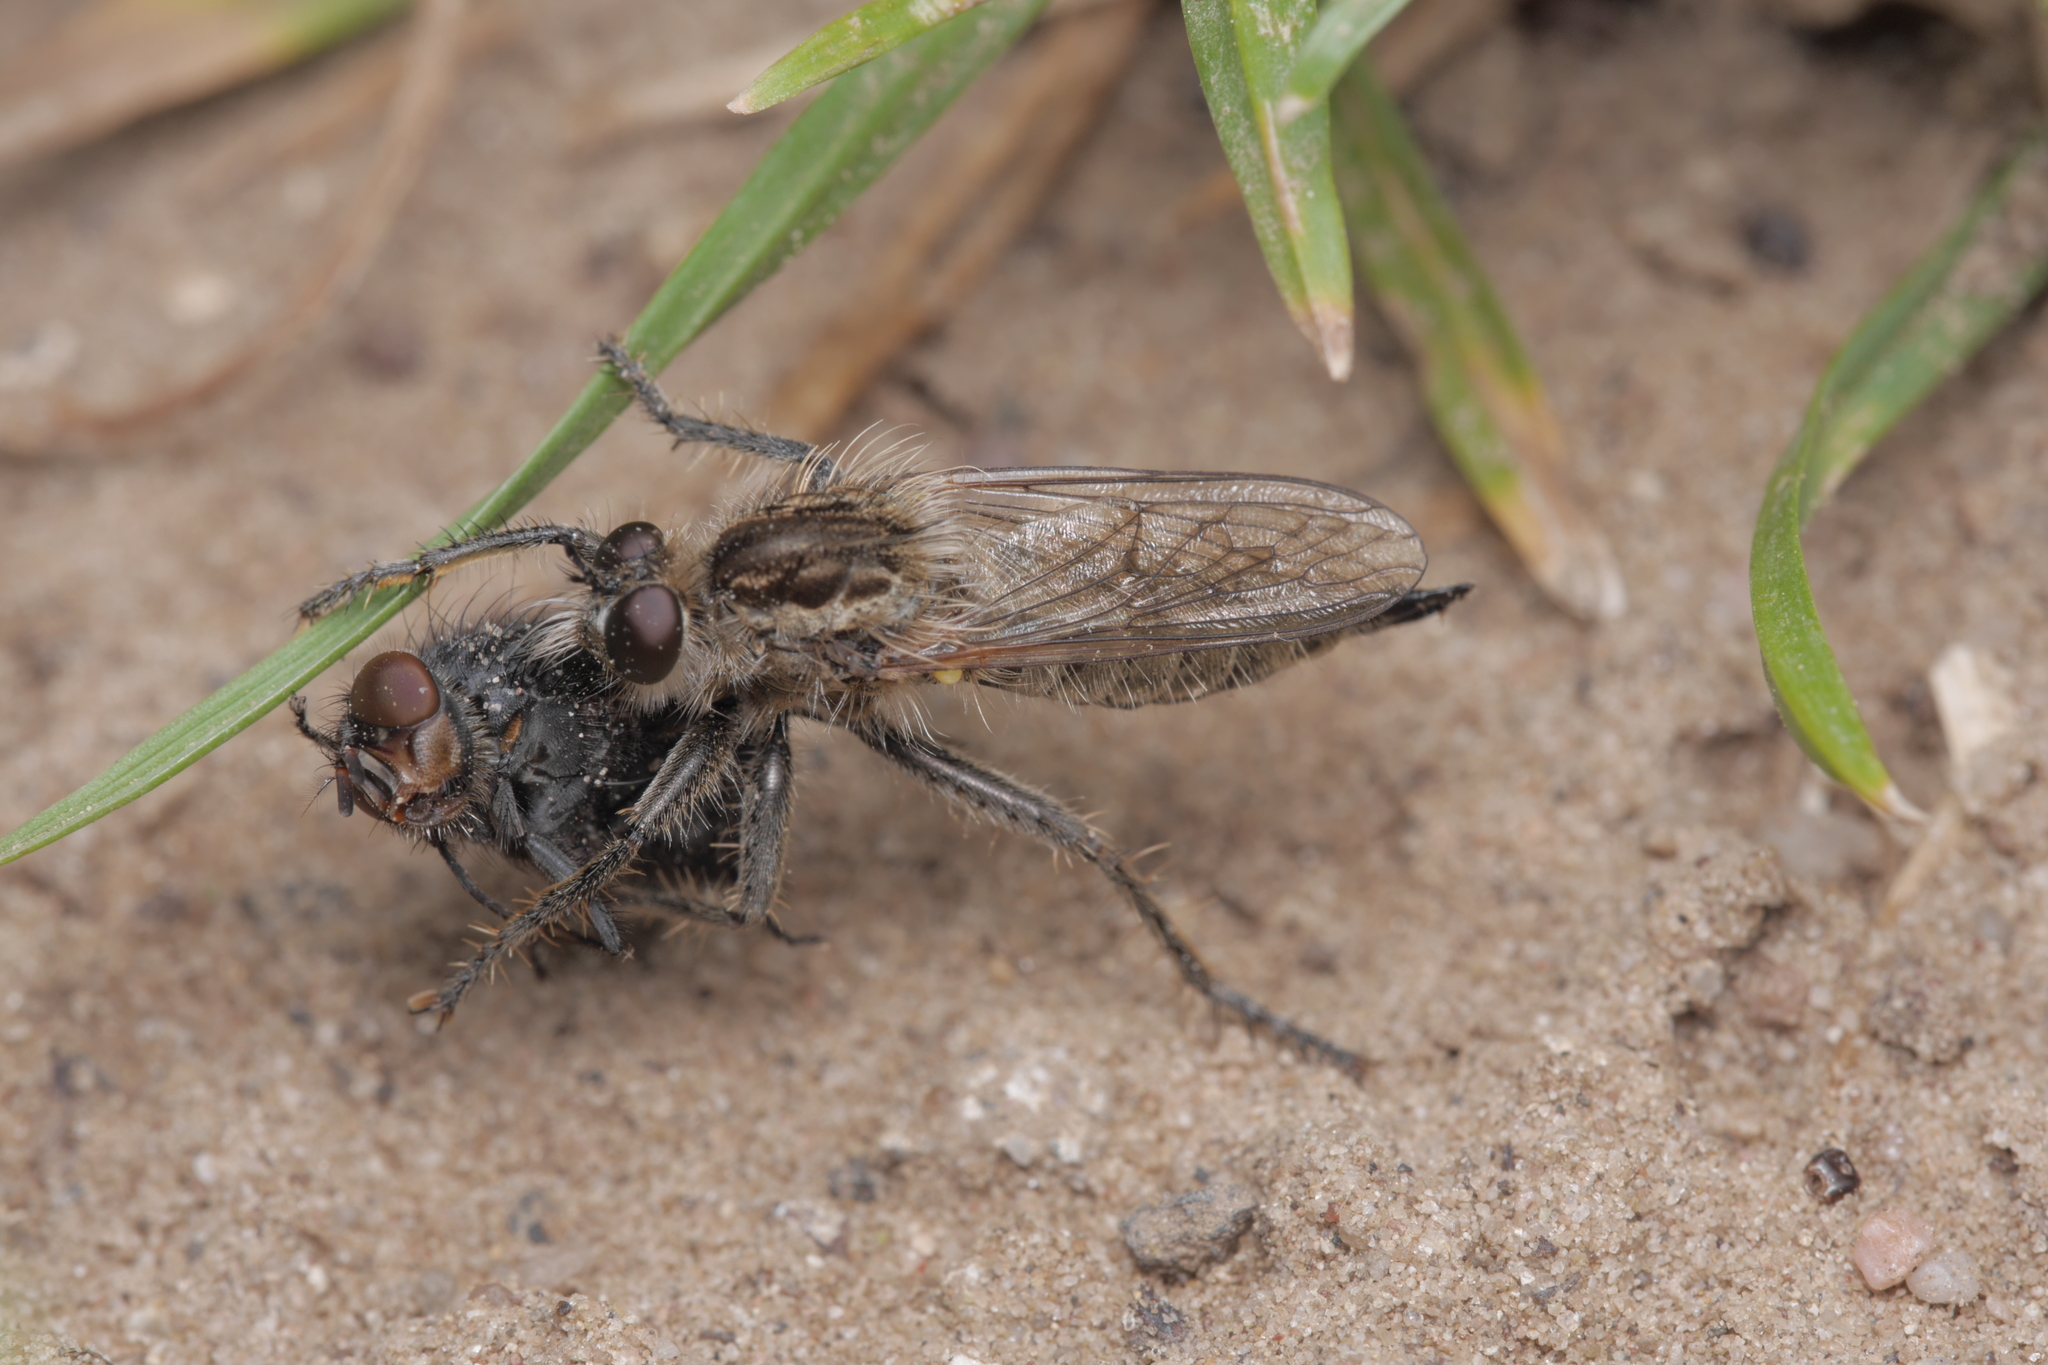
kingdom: Animalia
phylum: Arthropoda
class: Insecta
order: Diptera
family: Asilidae
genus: Dysmachus
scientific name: Dysmachus trigonus
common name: Fan-bristled robberfly
